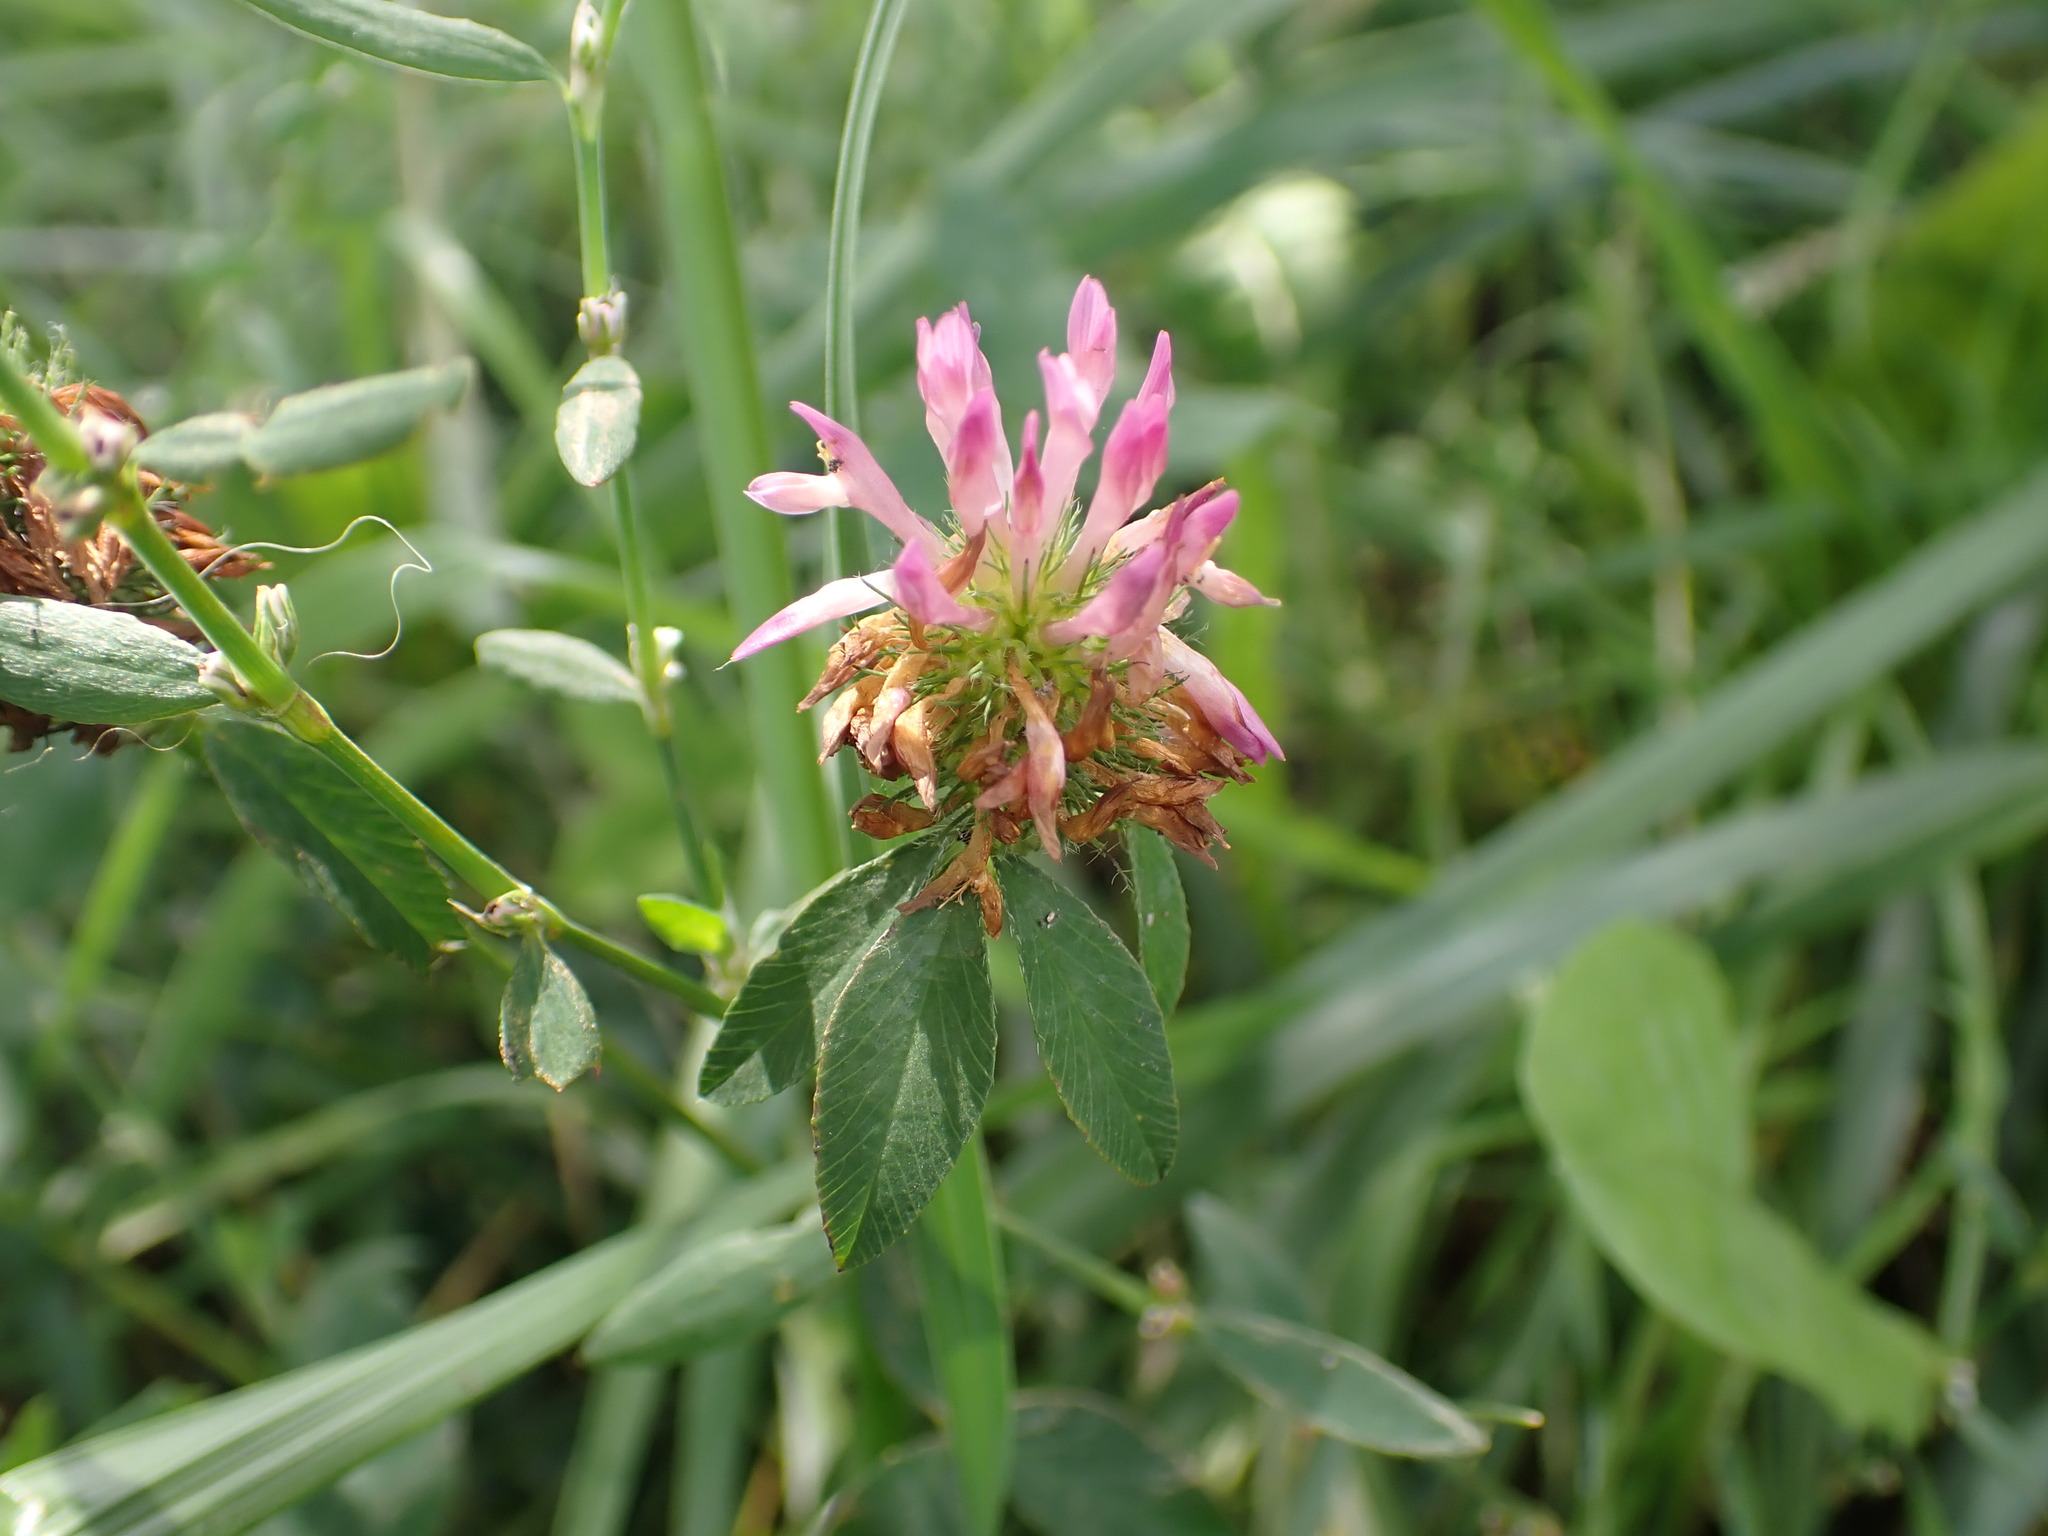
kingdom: Plantae
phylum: Tracheophyta
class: Magnoliopsida
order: Fabales
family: Fabaceae
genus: Trifolium
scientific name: Trifolium pratense
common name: Red clover
